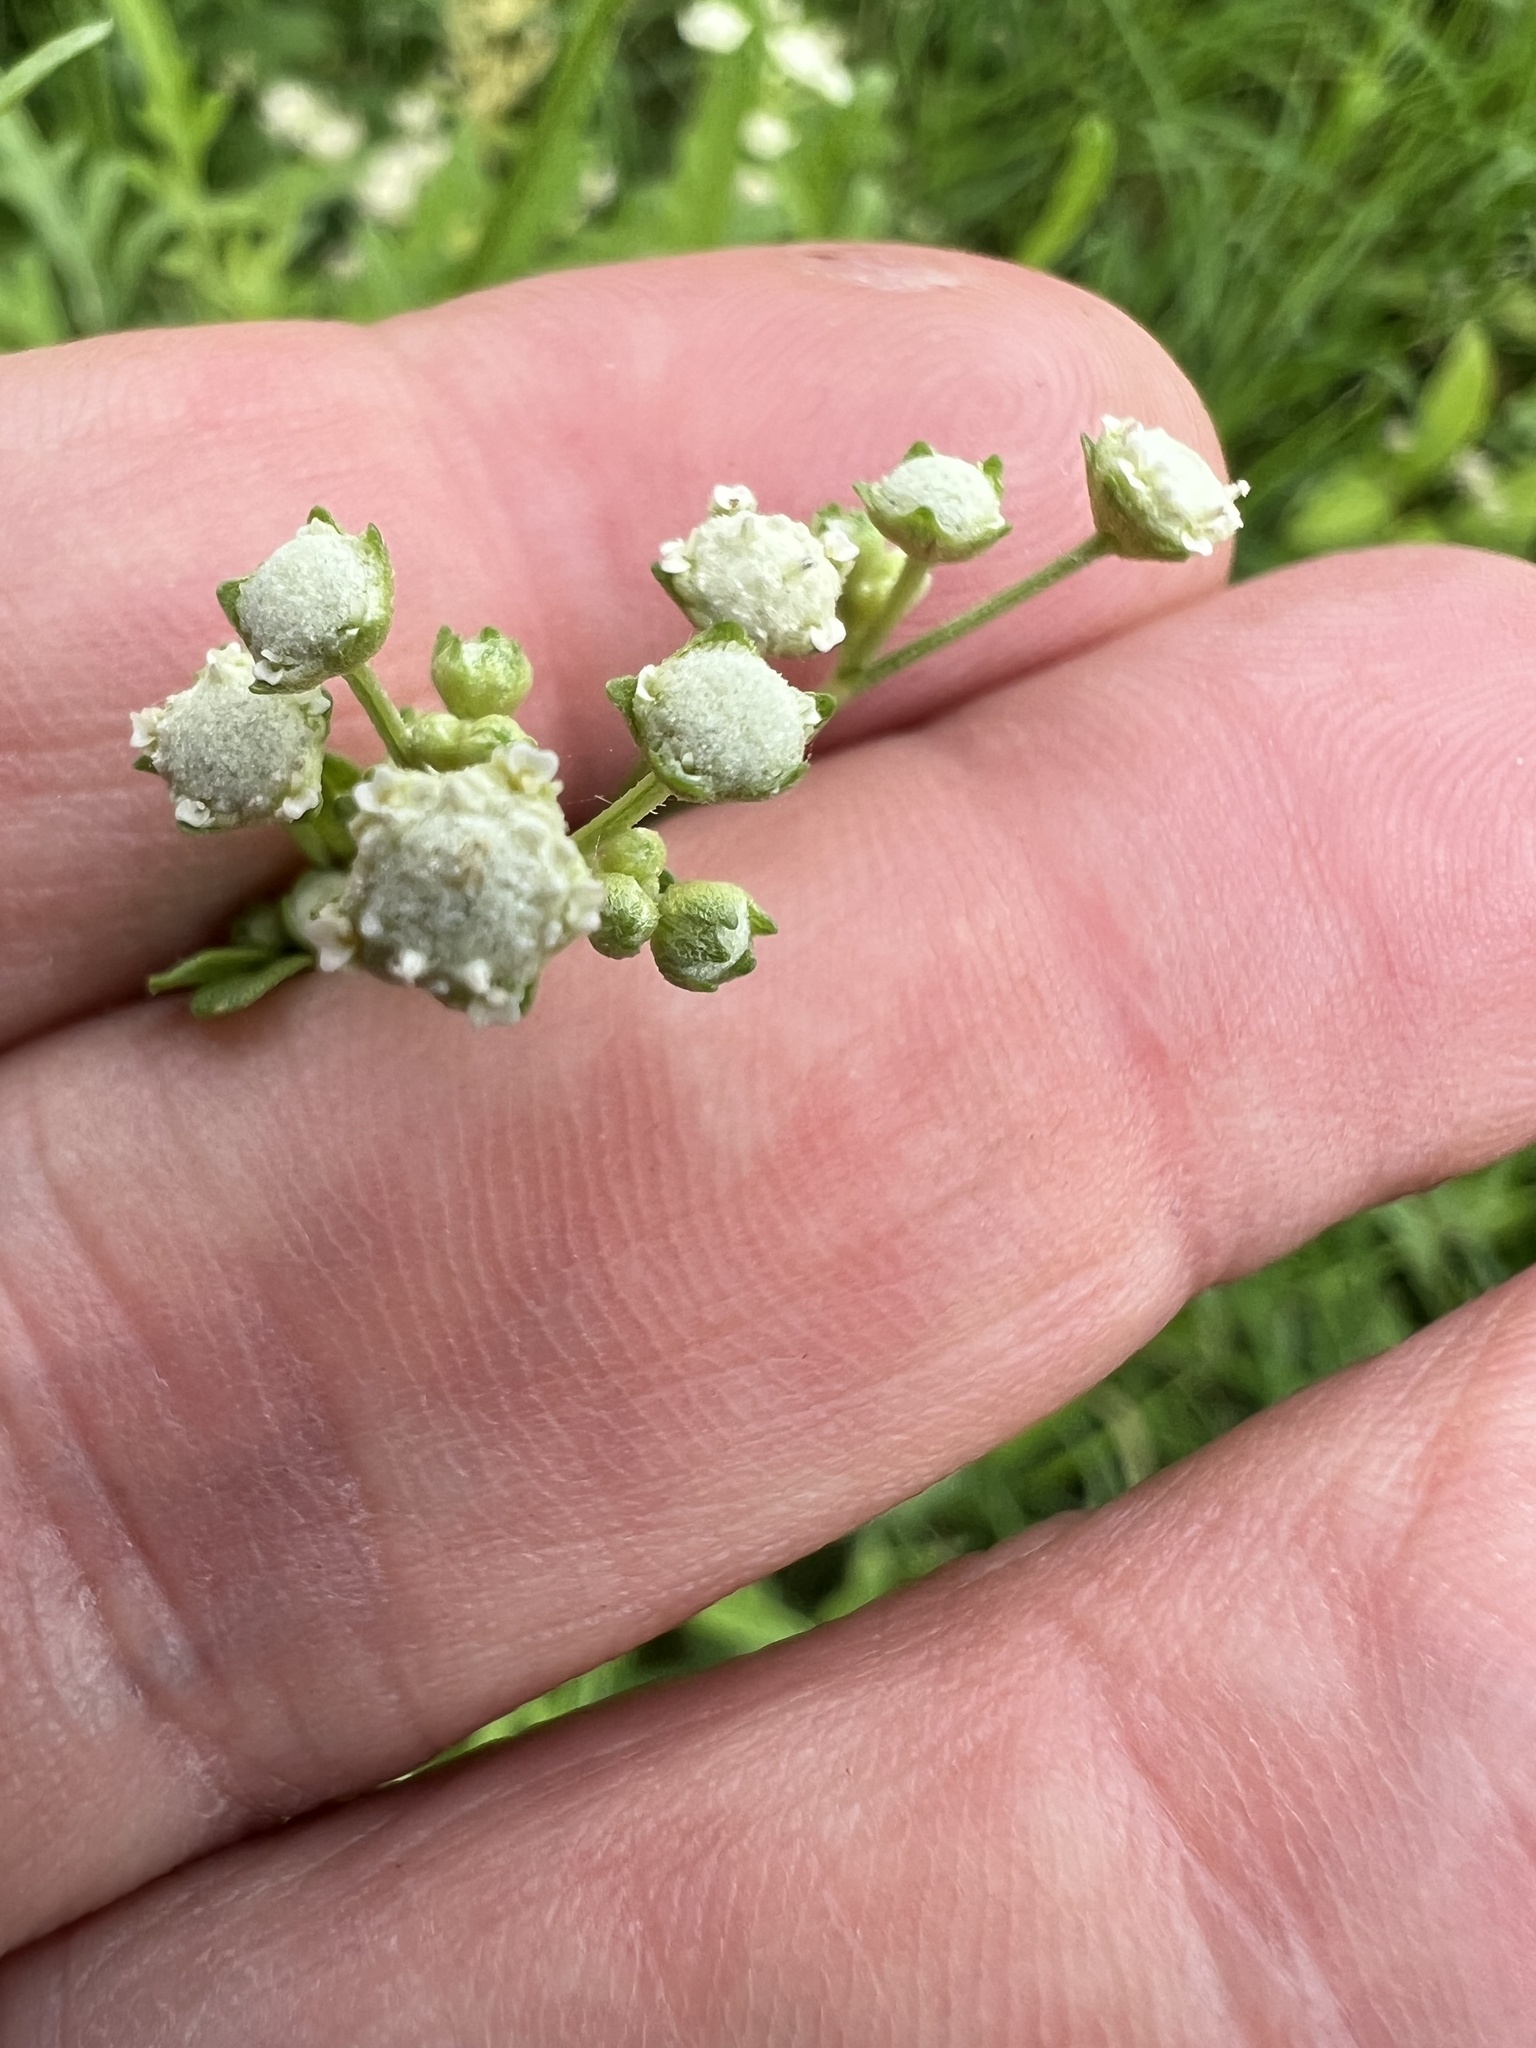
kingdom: Plantae
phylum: Tracheophyta
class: Magnoliopsida
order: Asterales
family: Asteraceae
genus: Parthenium
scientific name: Parthenium hysterophorus
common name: Santa maria feverfew
